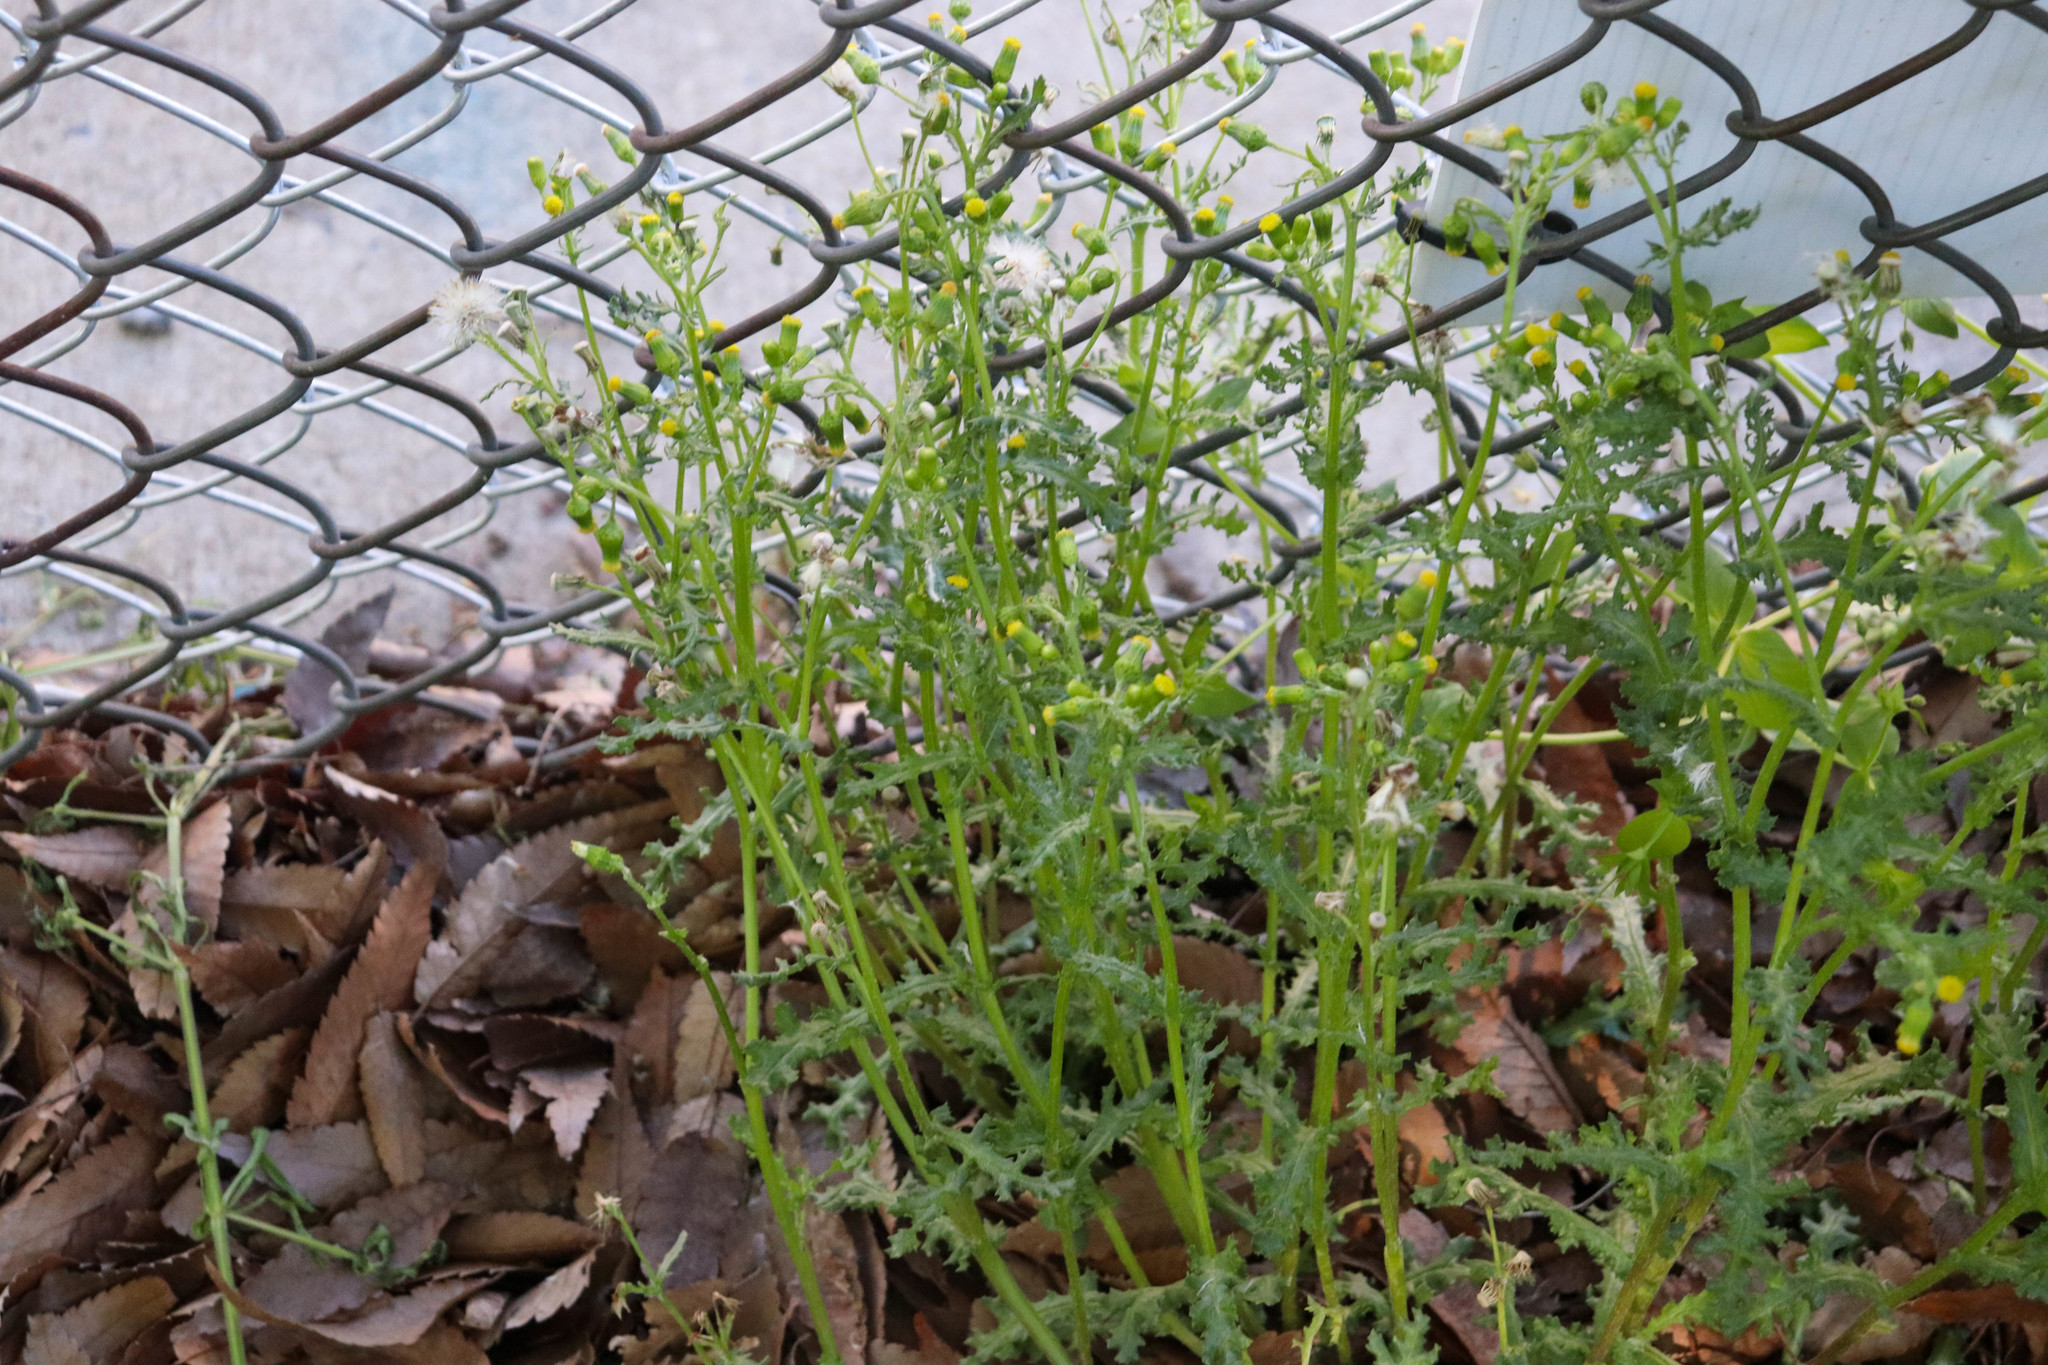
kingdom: Plantae
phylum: Tracheophyta
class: Magnoliopsida
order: Asterales
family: Asteraceae
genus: Senecio
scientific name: Senecio vulgaris
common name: Old-man-in-the-spring
